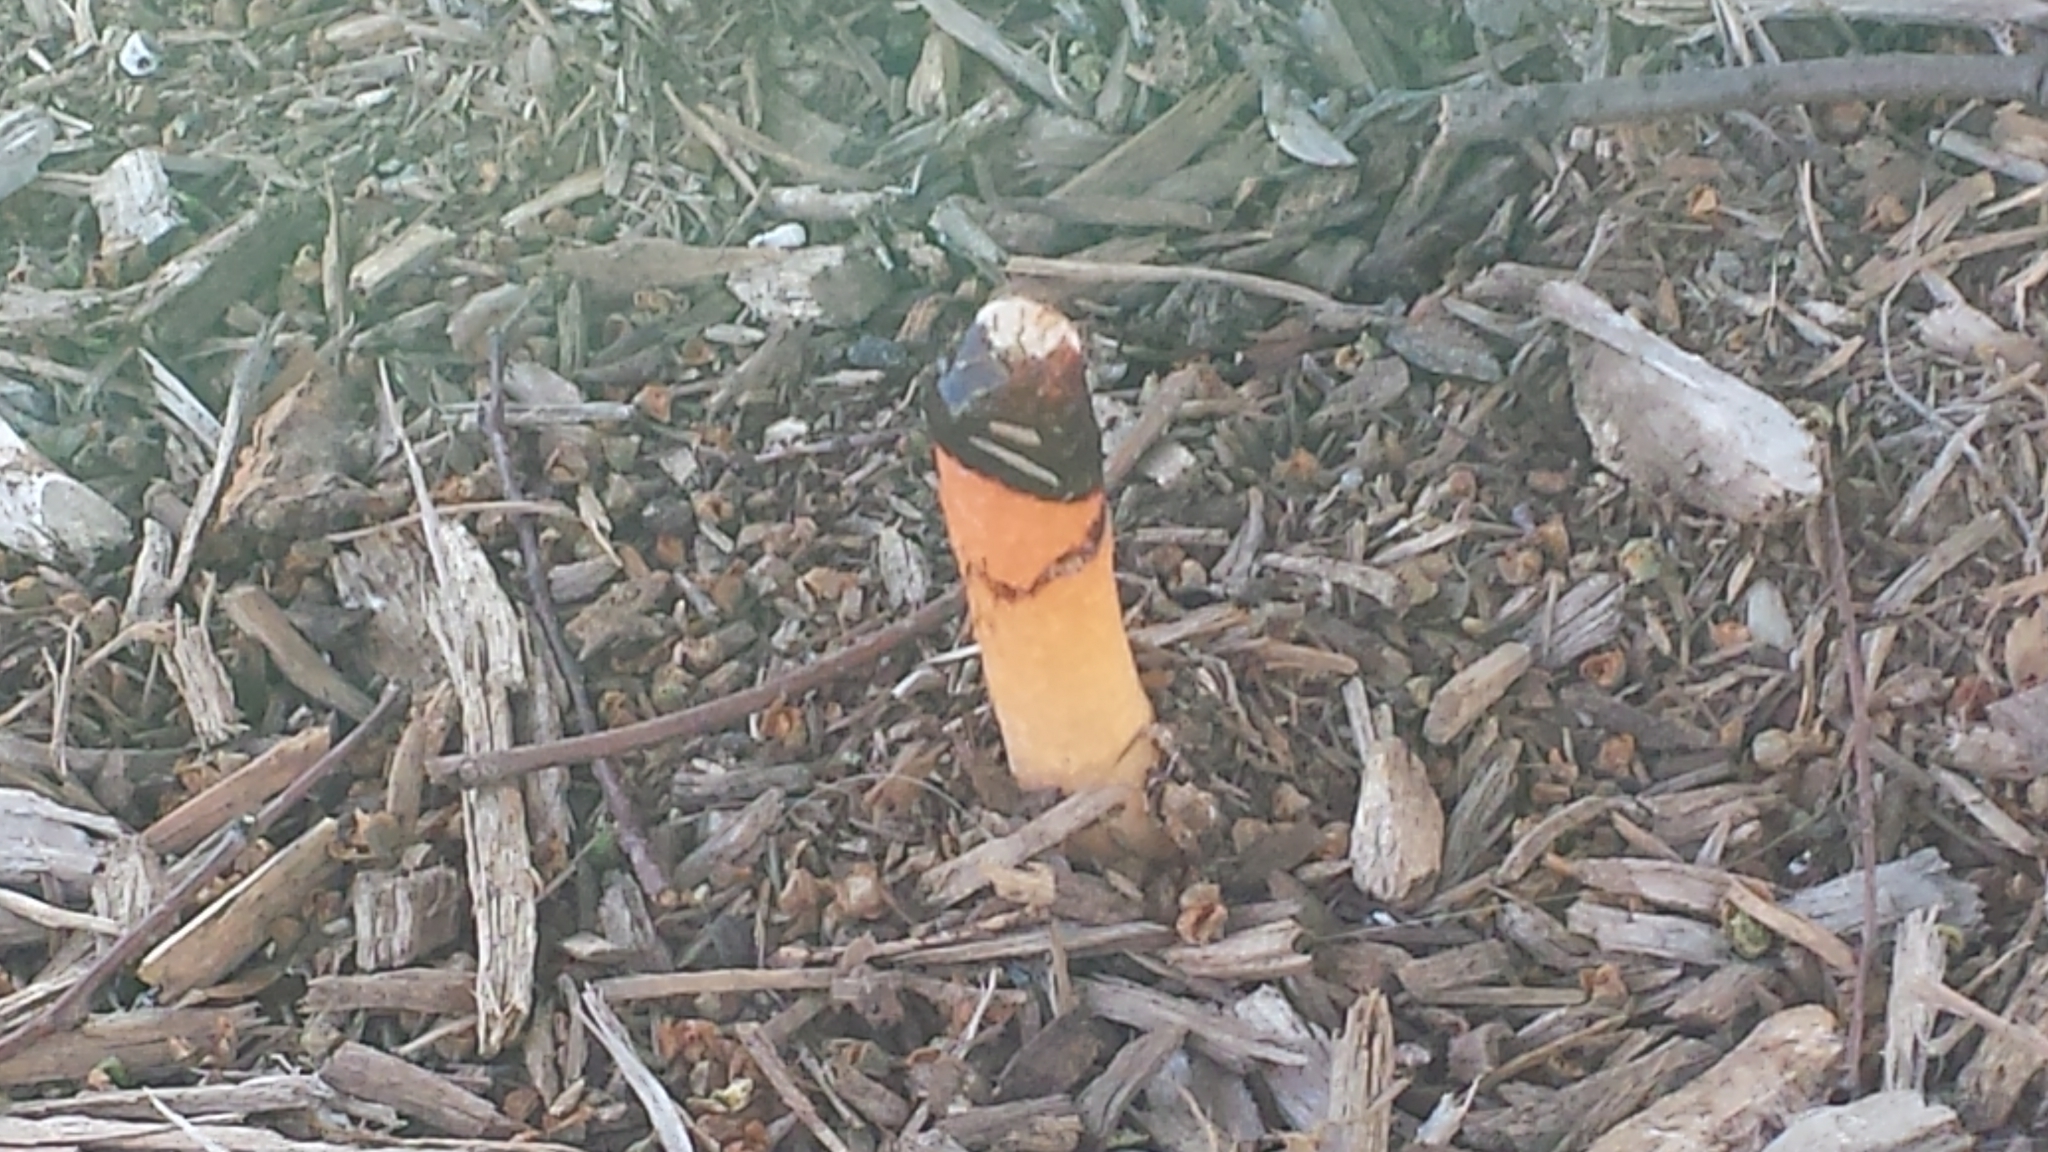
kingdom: Fungi
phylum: Basidiomycota
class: Agaricomycetes
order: Phallales
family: Phallaceae
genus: Mutinus
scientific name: Mutinus elegans
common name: Devil's dipstick
